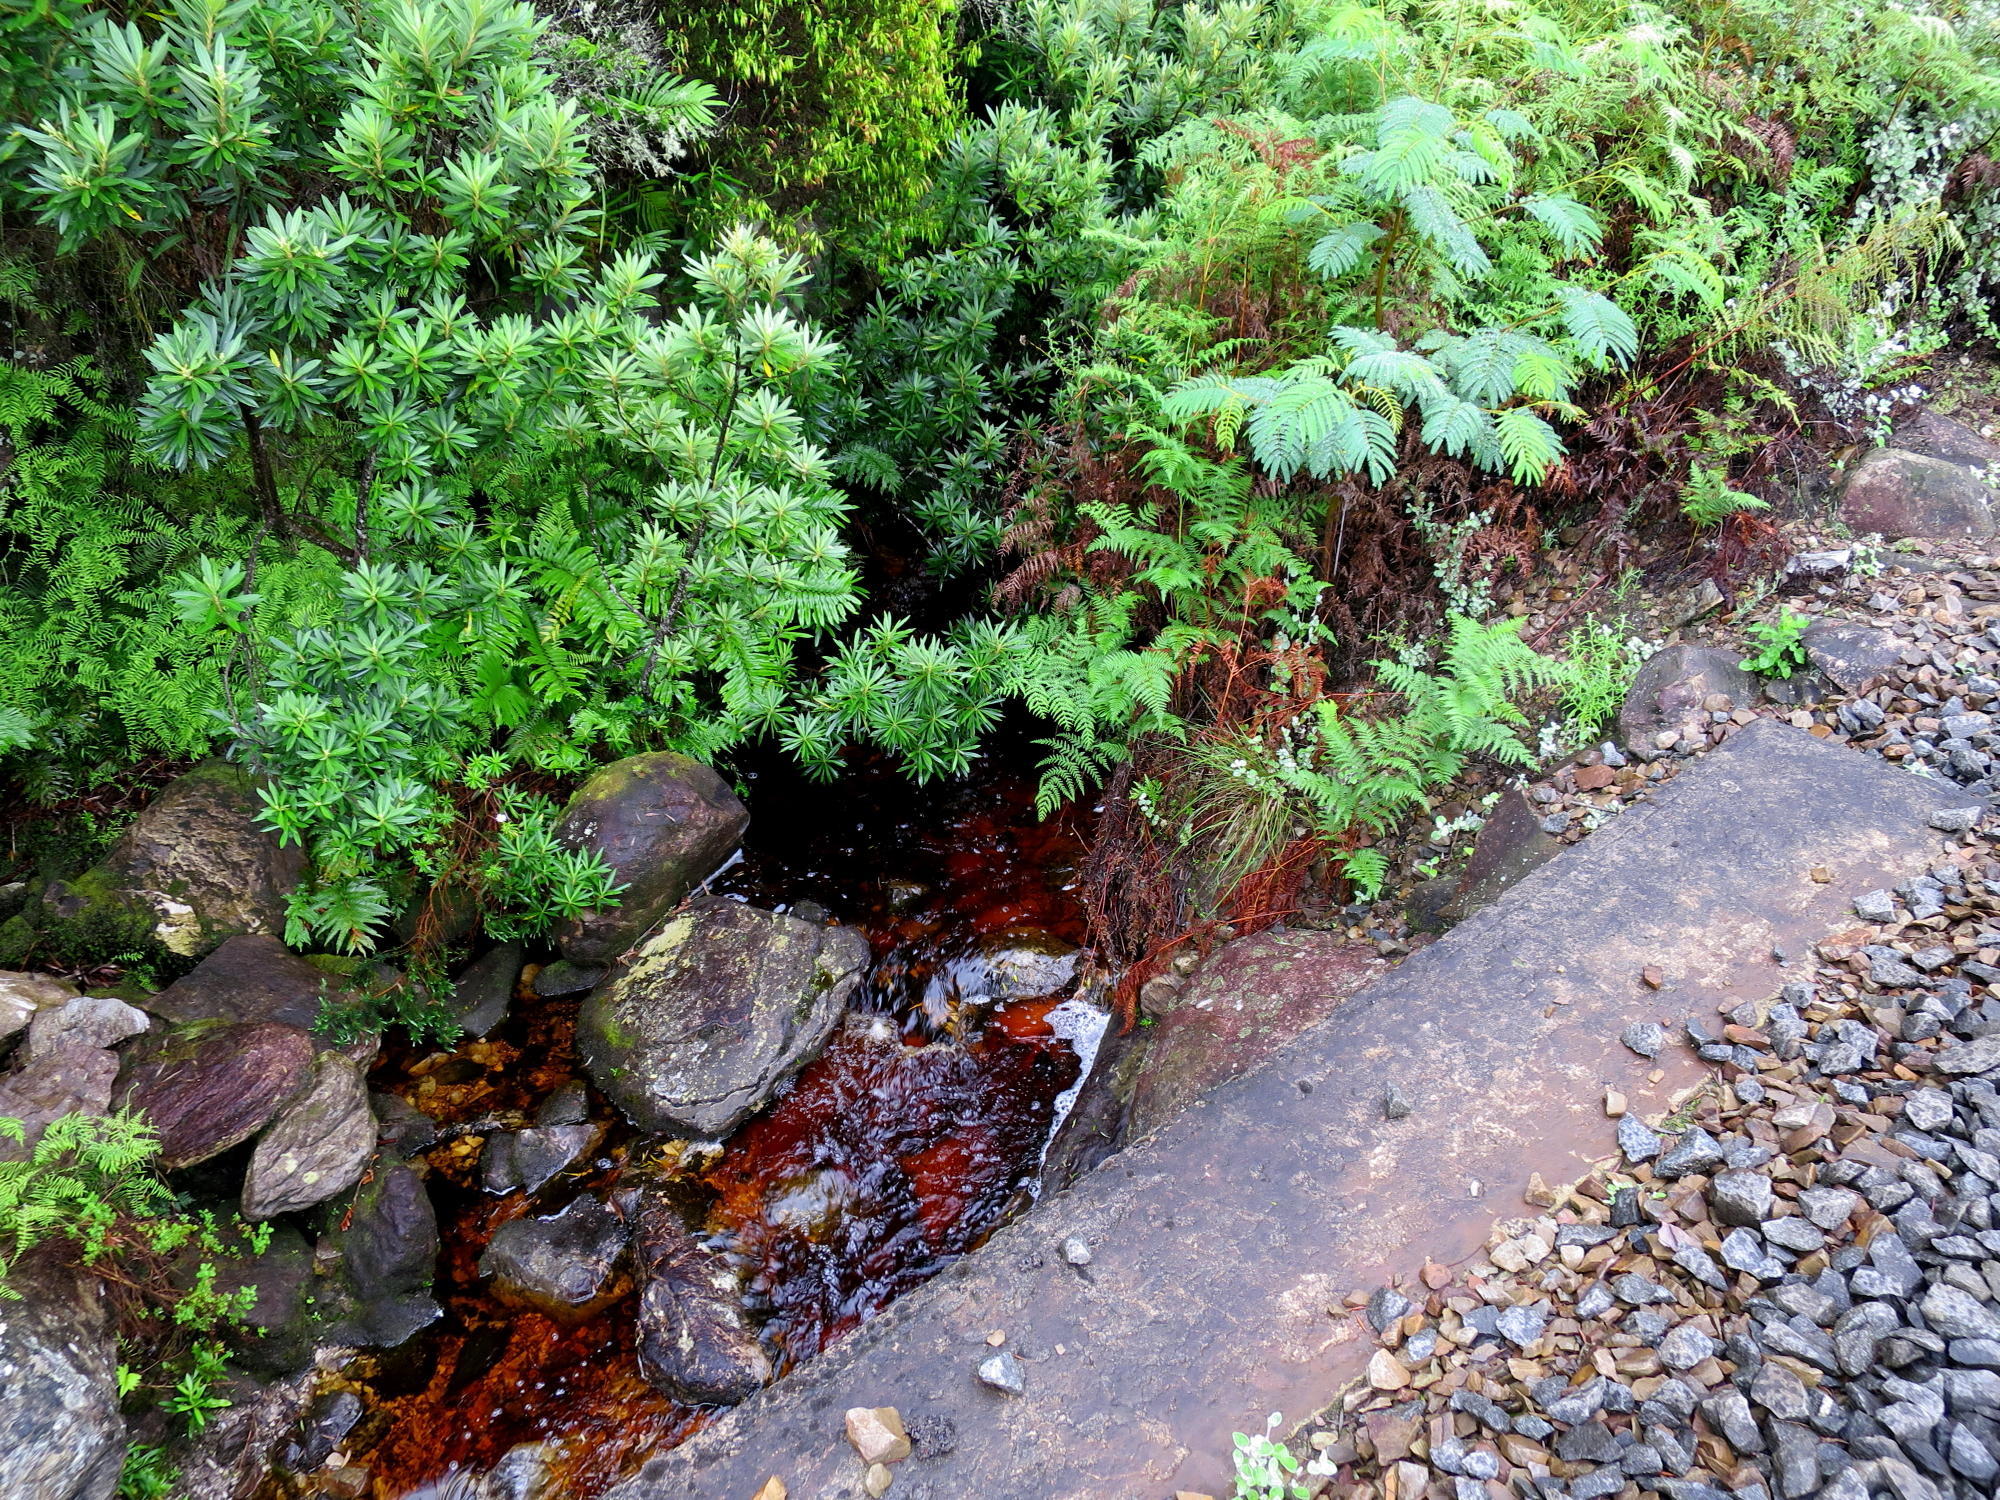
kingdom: Plantae
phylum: Tracheophyta
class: Magnoliopsida
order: Asterales
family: Asteraceae
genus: Brachylaena
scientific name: Brachylaena neriifolia
